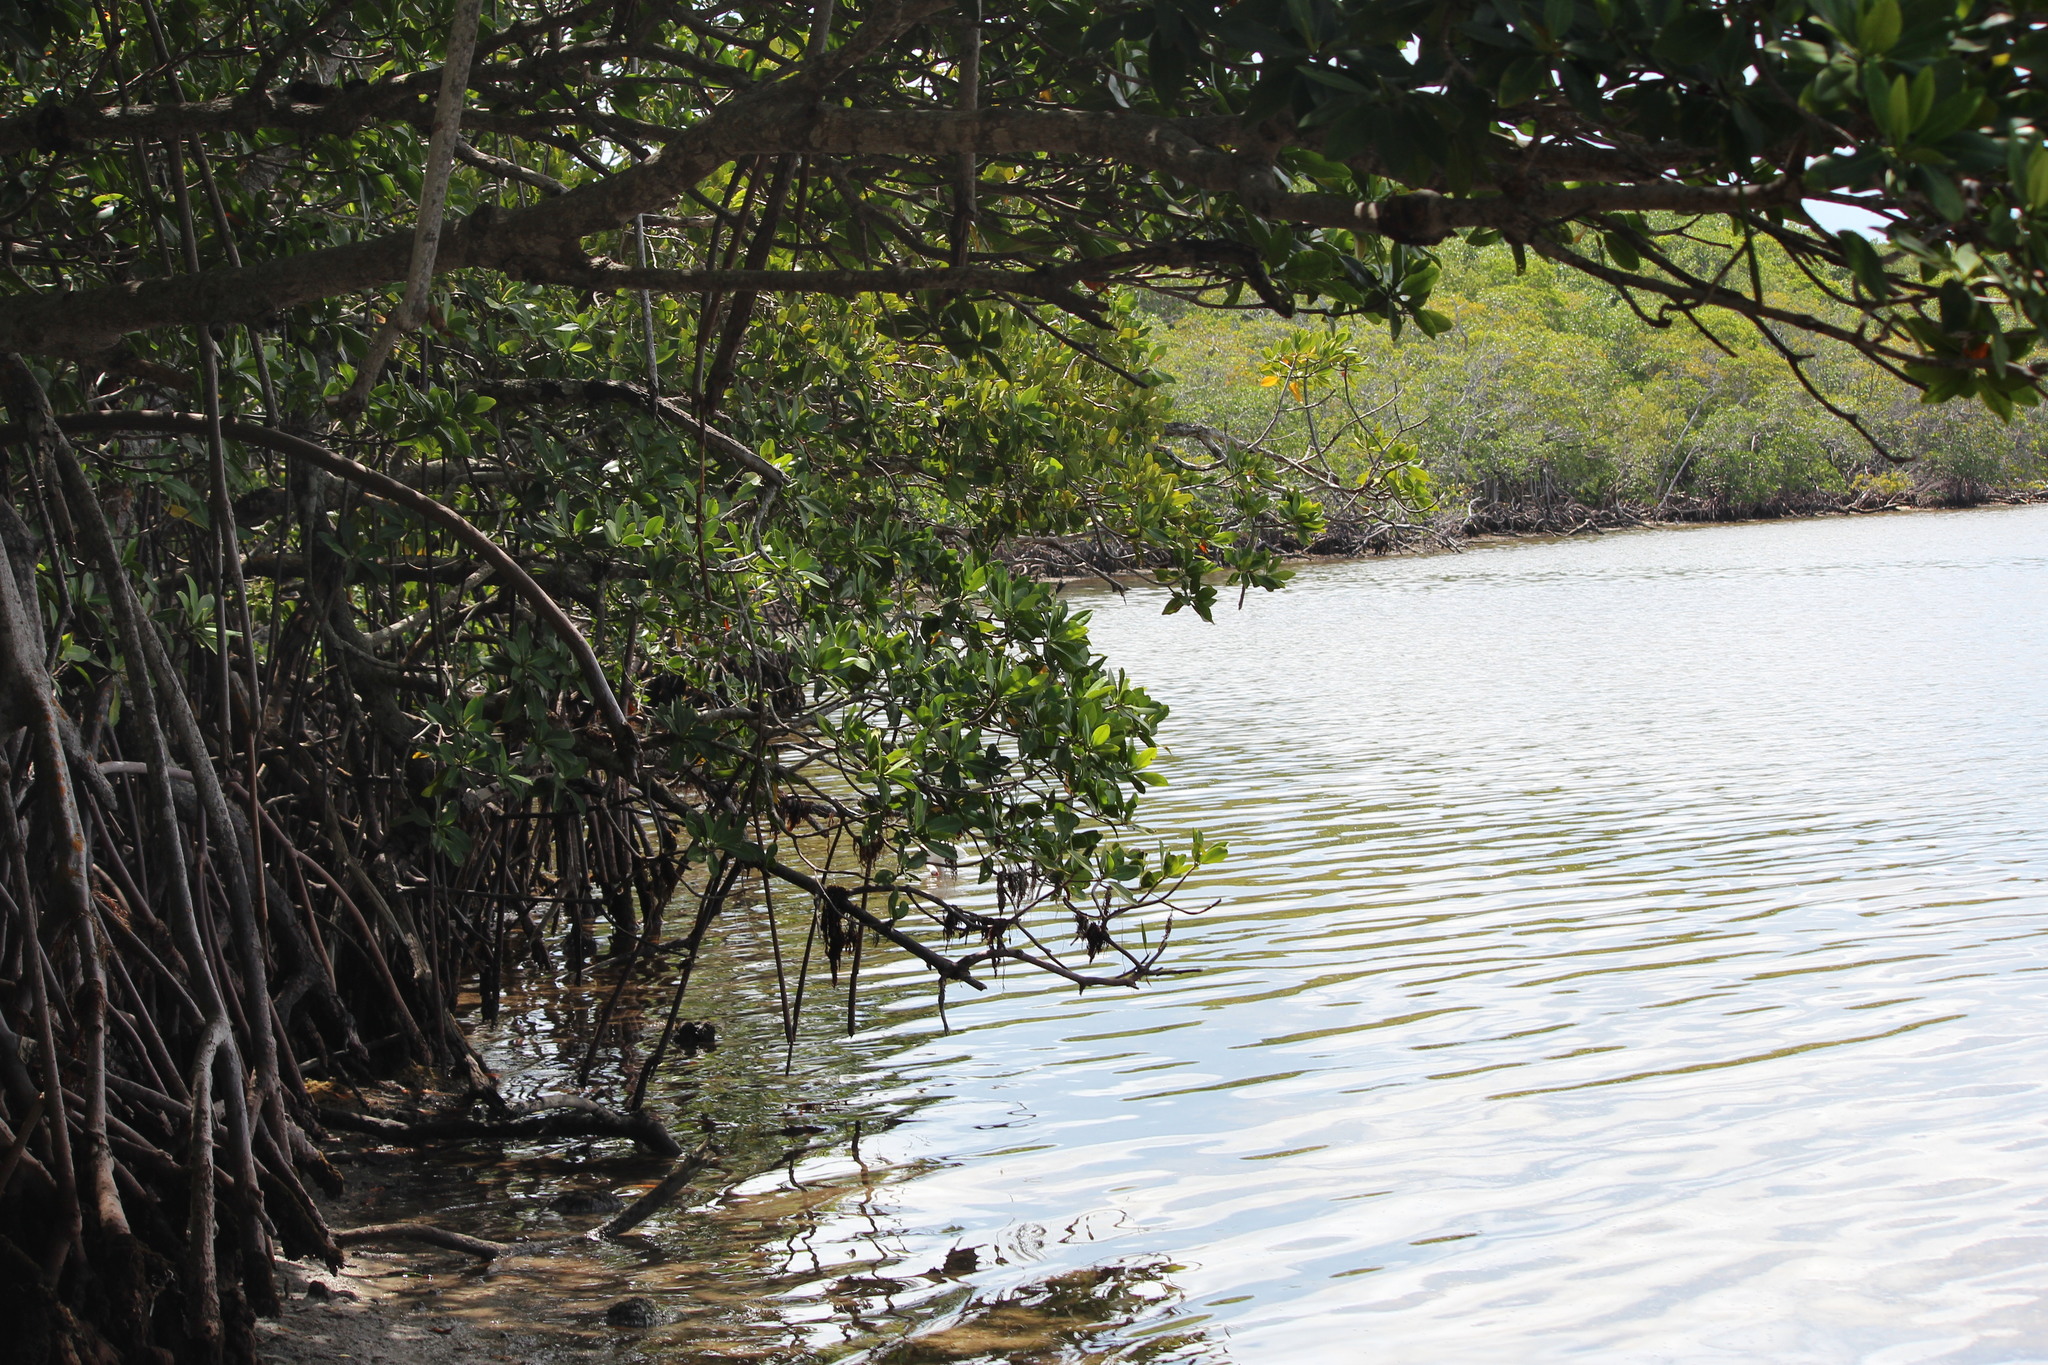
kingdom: Plantae
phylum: Tracheophyta
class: Magnoliopsida
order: Malpighiales
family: Rhizophoraceae
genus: Rhizophora
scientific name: Rhizophora mangle
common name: Red mangrove
